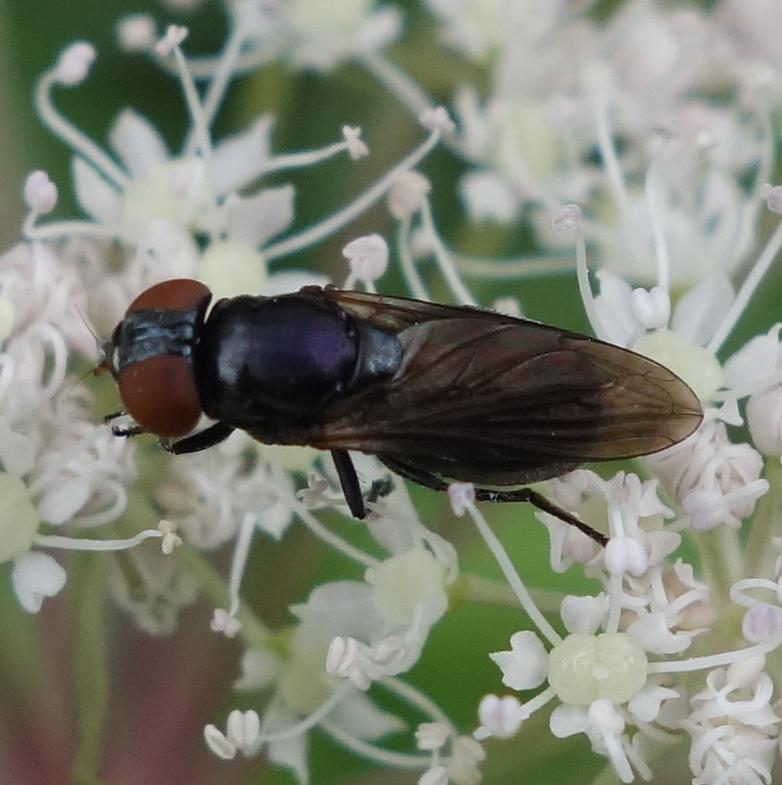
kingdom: Animalia
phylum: Arthropoda
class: Insecta
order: Diptera
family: Syrphidae
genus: Chrysogaster
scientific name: Chrysogaster solstitialis
